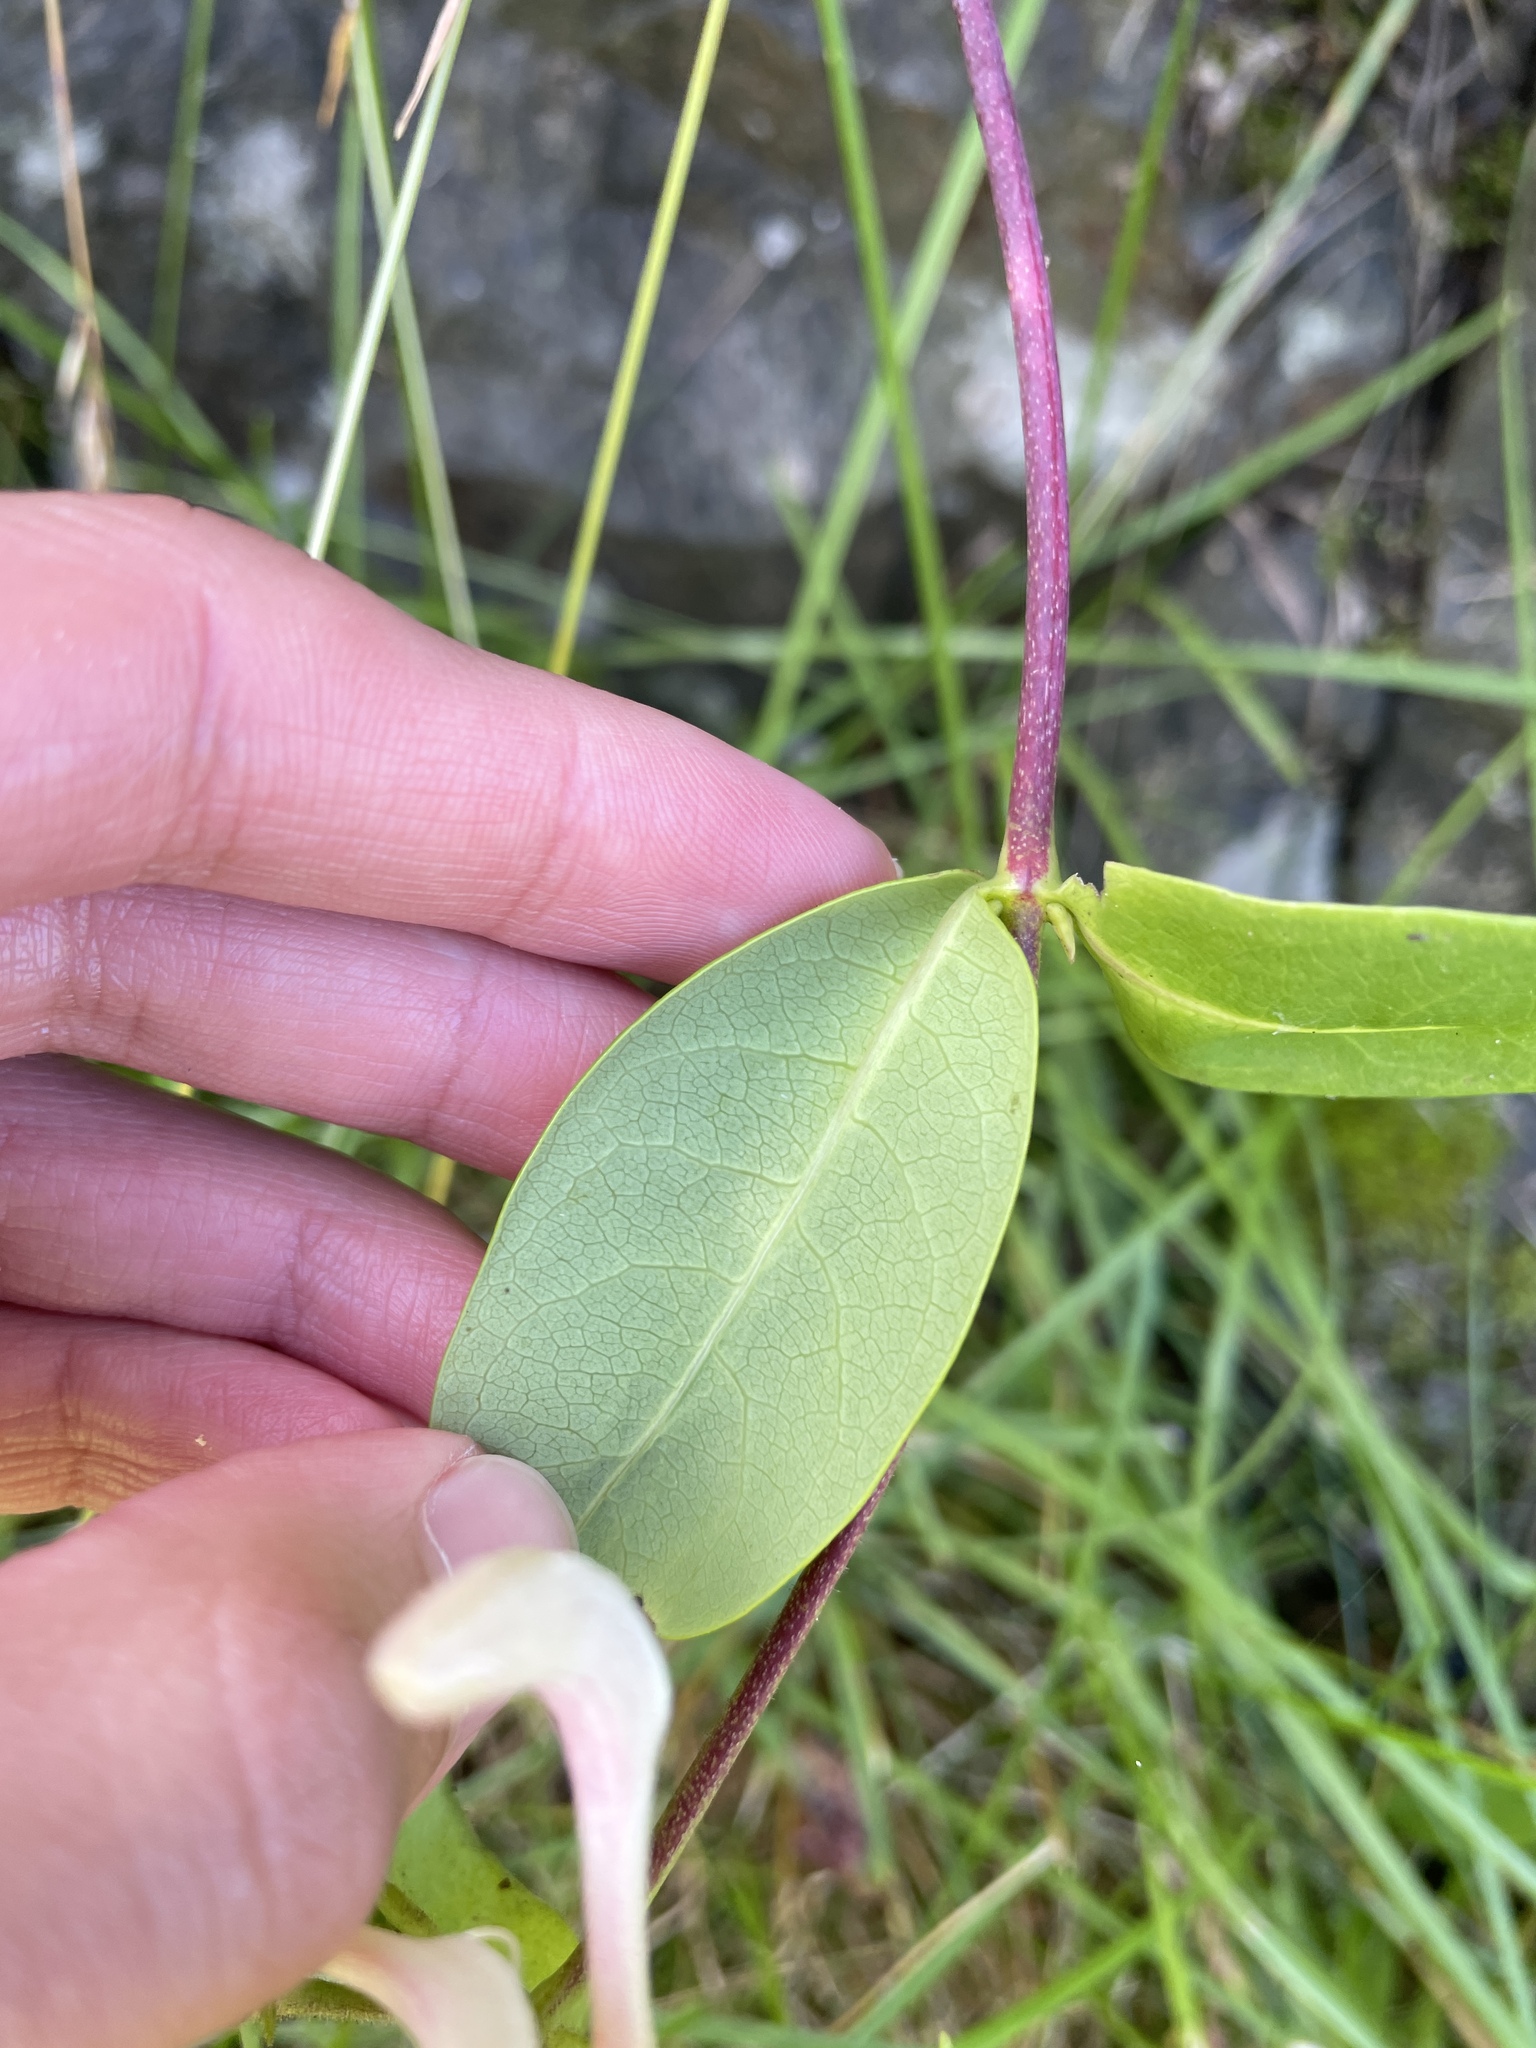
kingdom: Plantae
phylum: Tracheophyta
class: Magnoliopsida
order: Dipsacales
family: Caprifoliaceae
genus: Lonicera
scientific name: Lonicera periclymenum
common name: European honeysuckle
